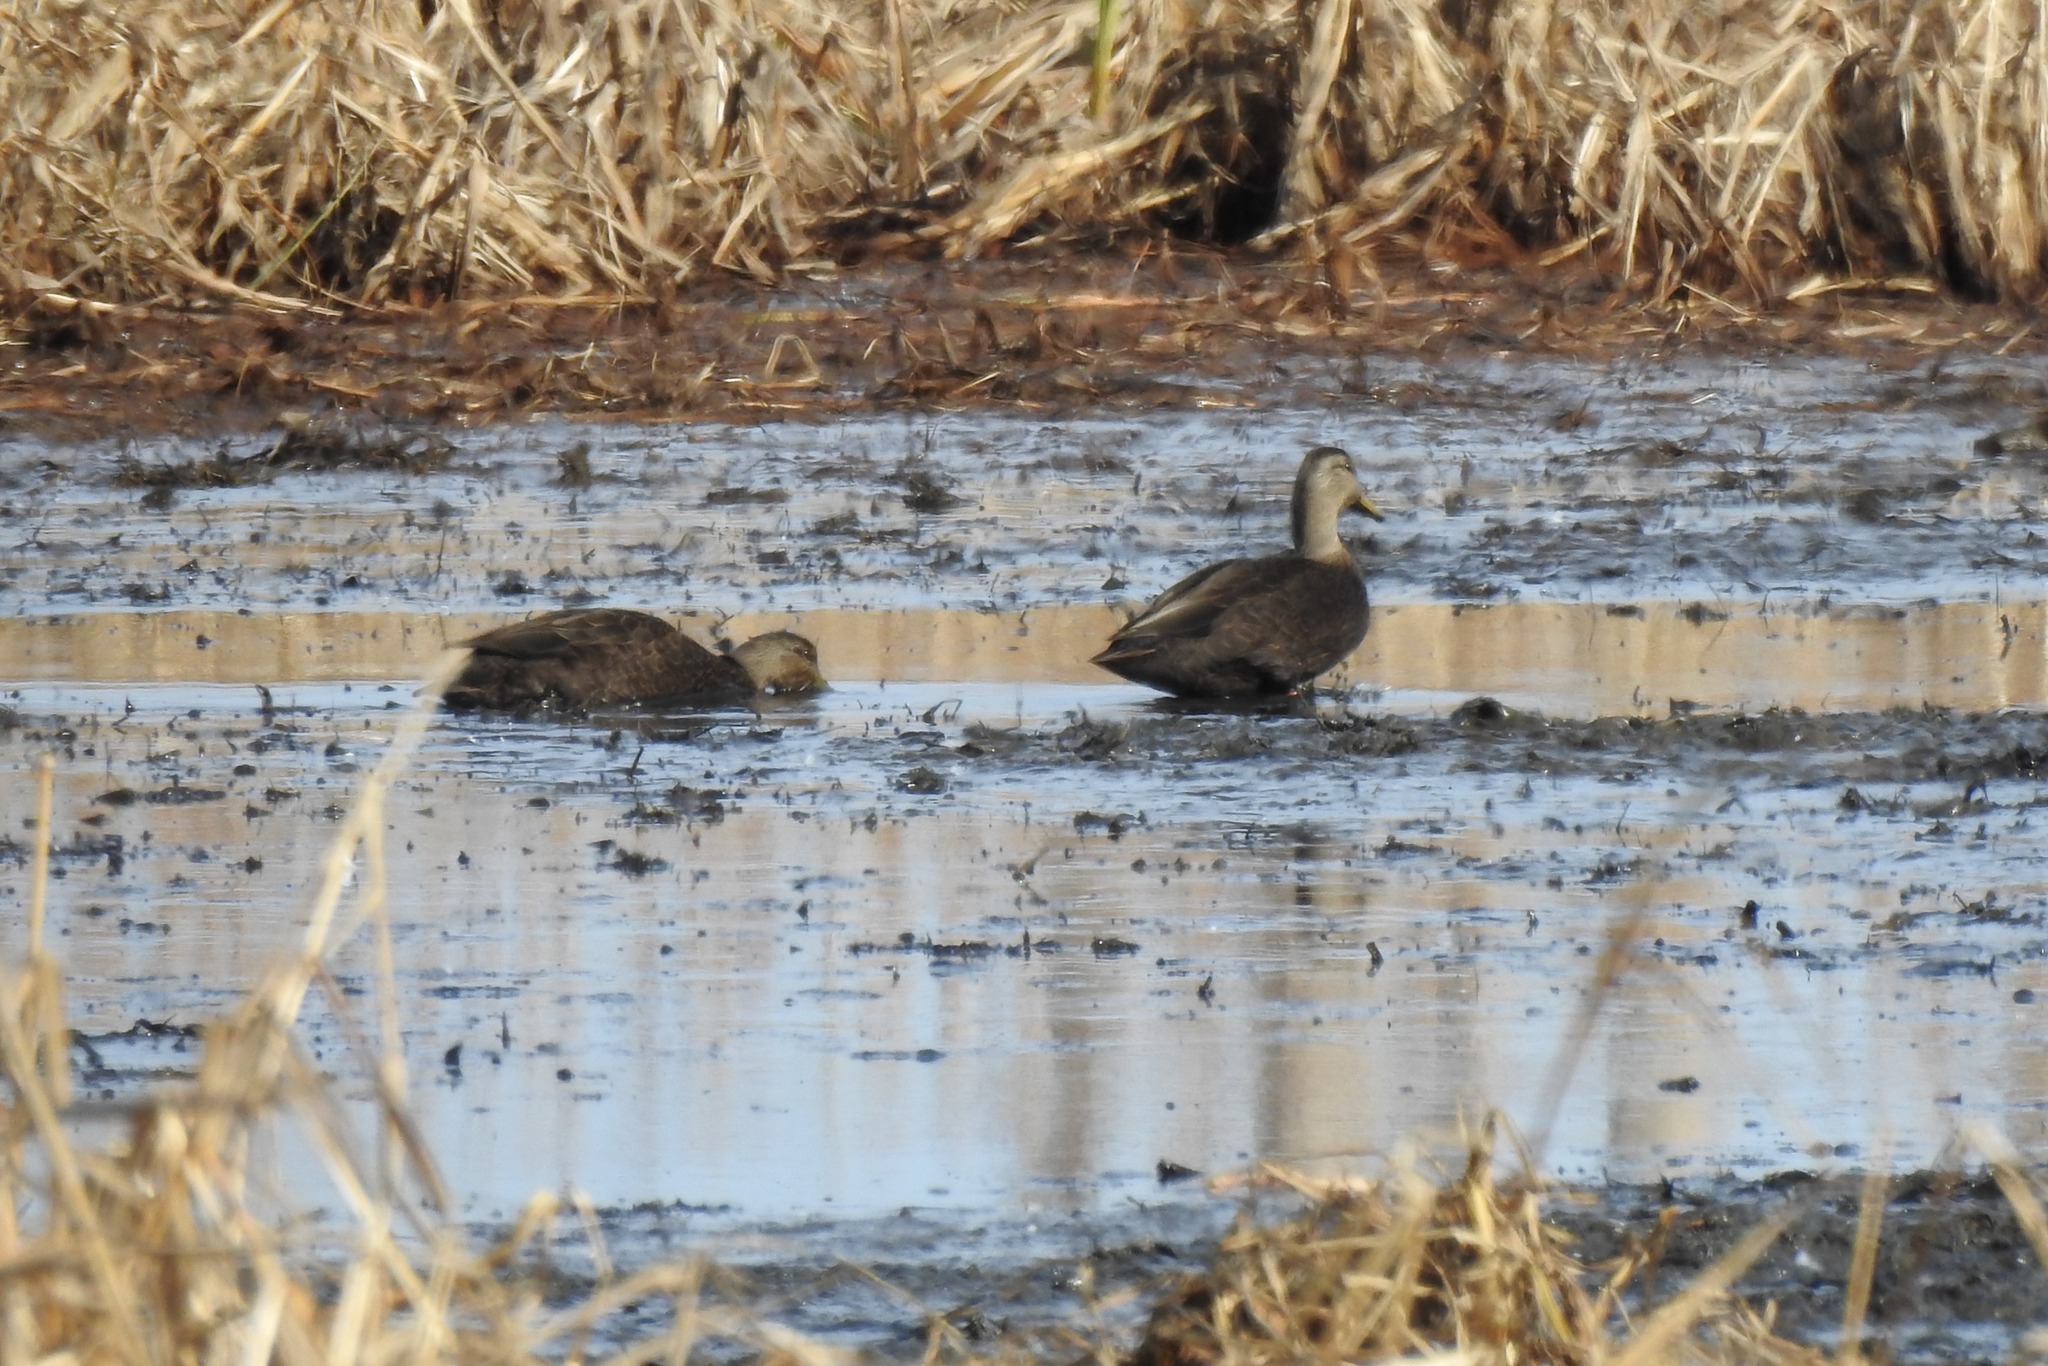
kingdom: Animalia
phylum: Chordata
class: Aves
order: Anseriformes
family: Anatidae
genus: Anas
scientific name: Anas rubripes
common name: American black duck
